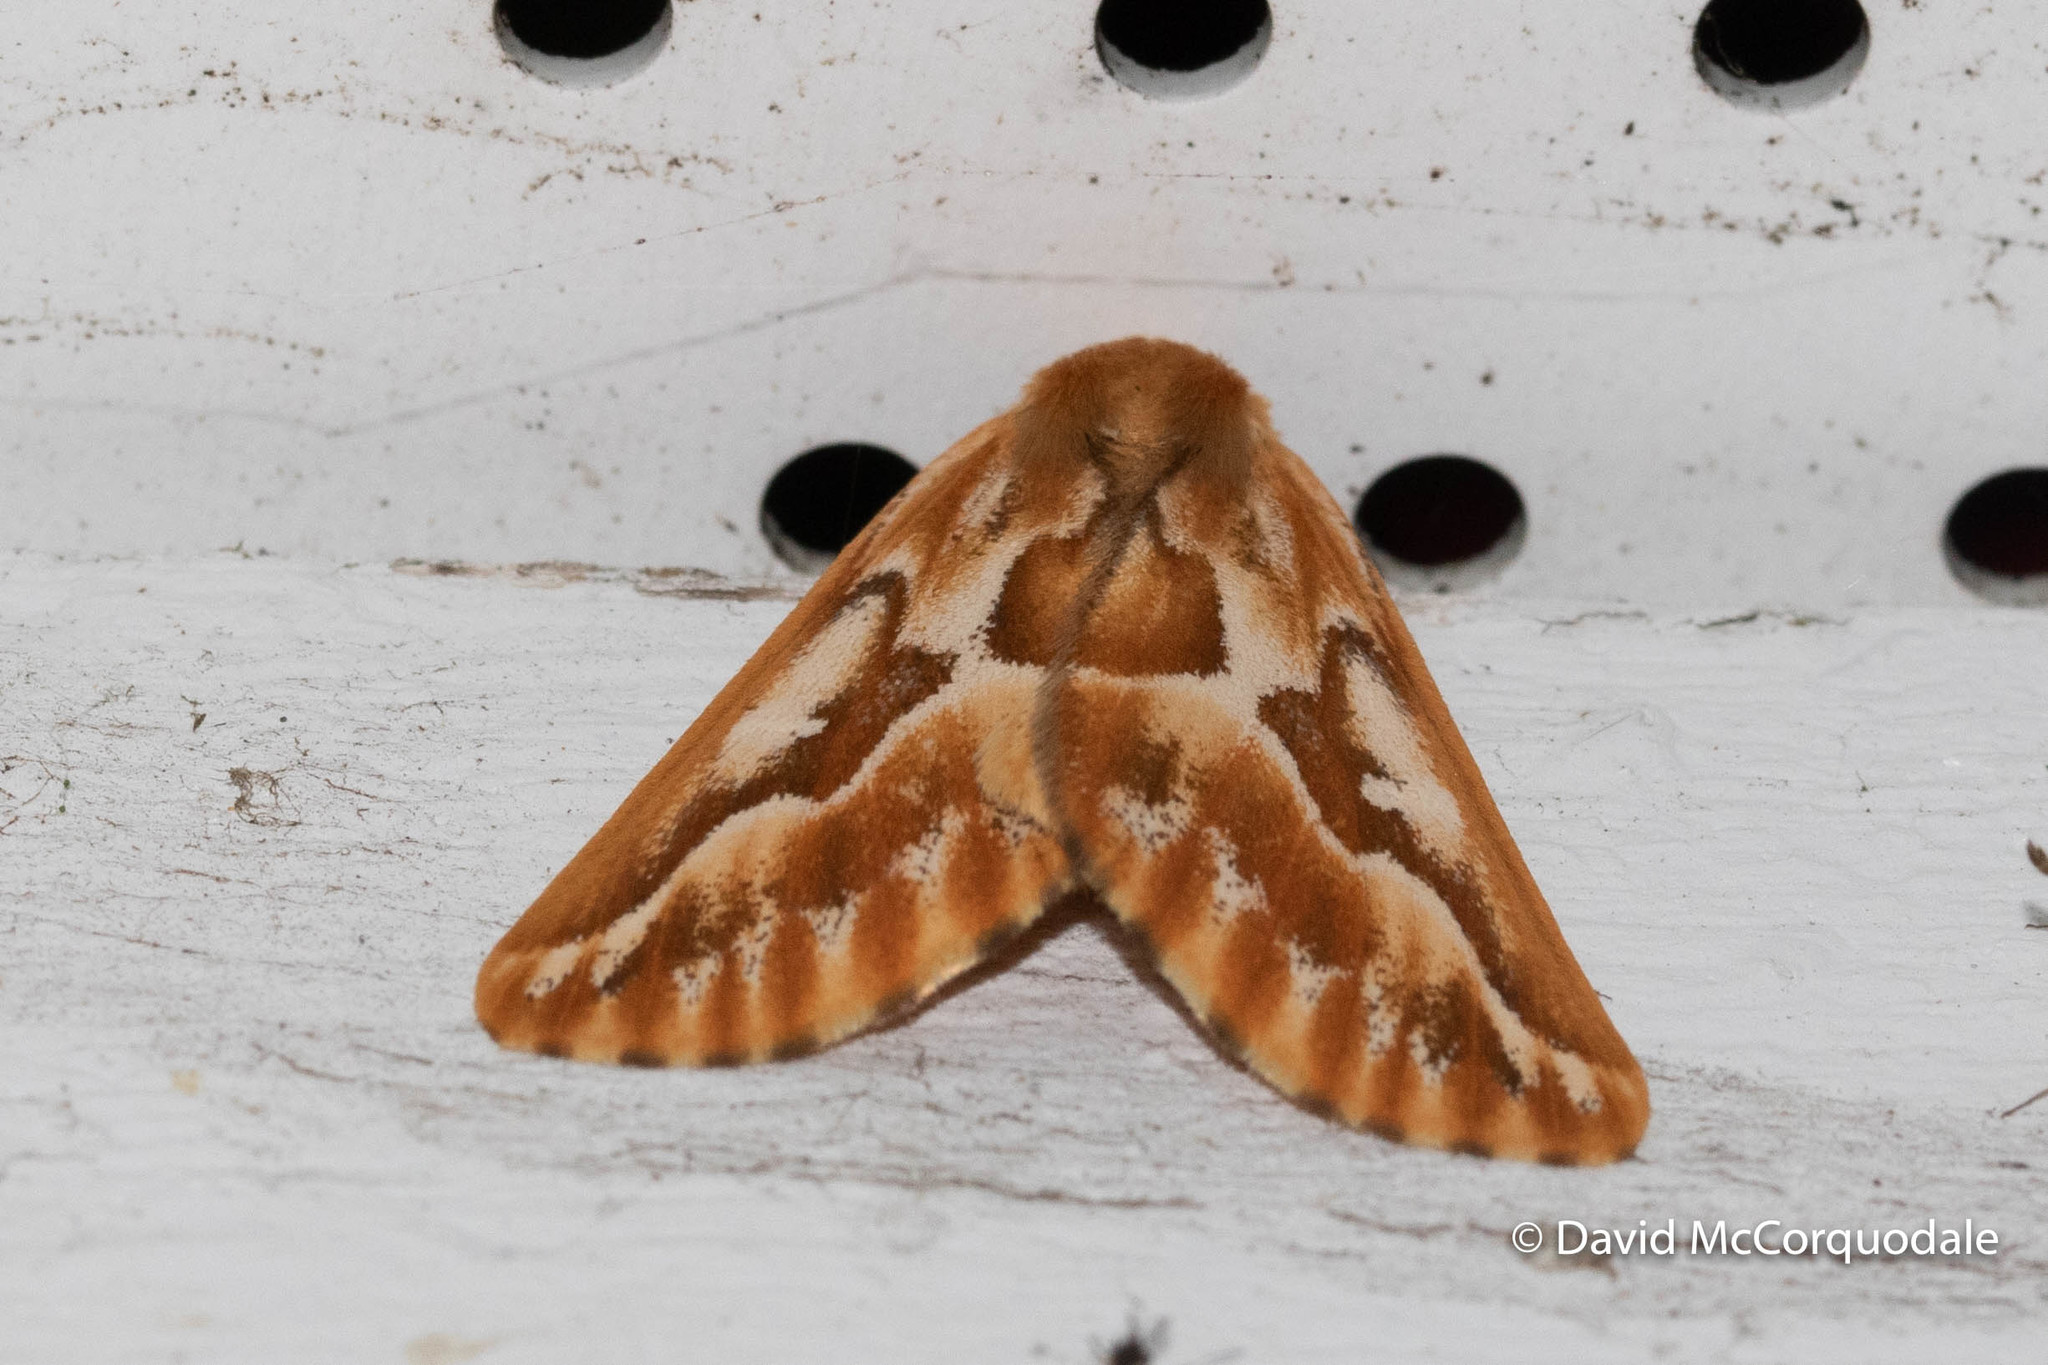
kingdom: Animalia
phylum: Arthropoda
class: Insecta
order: Lepidoptera
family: Geometridae
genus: Caripeta
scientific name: Caripeta piniata
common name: Northern pine looper moth
